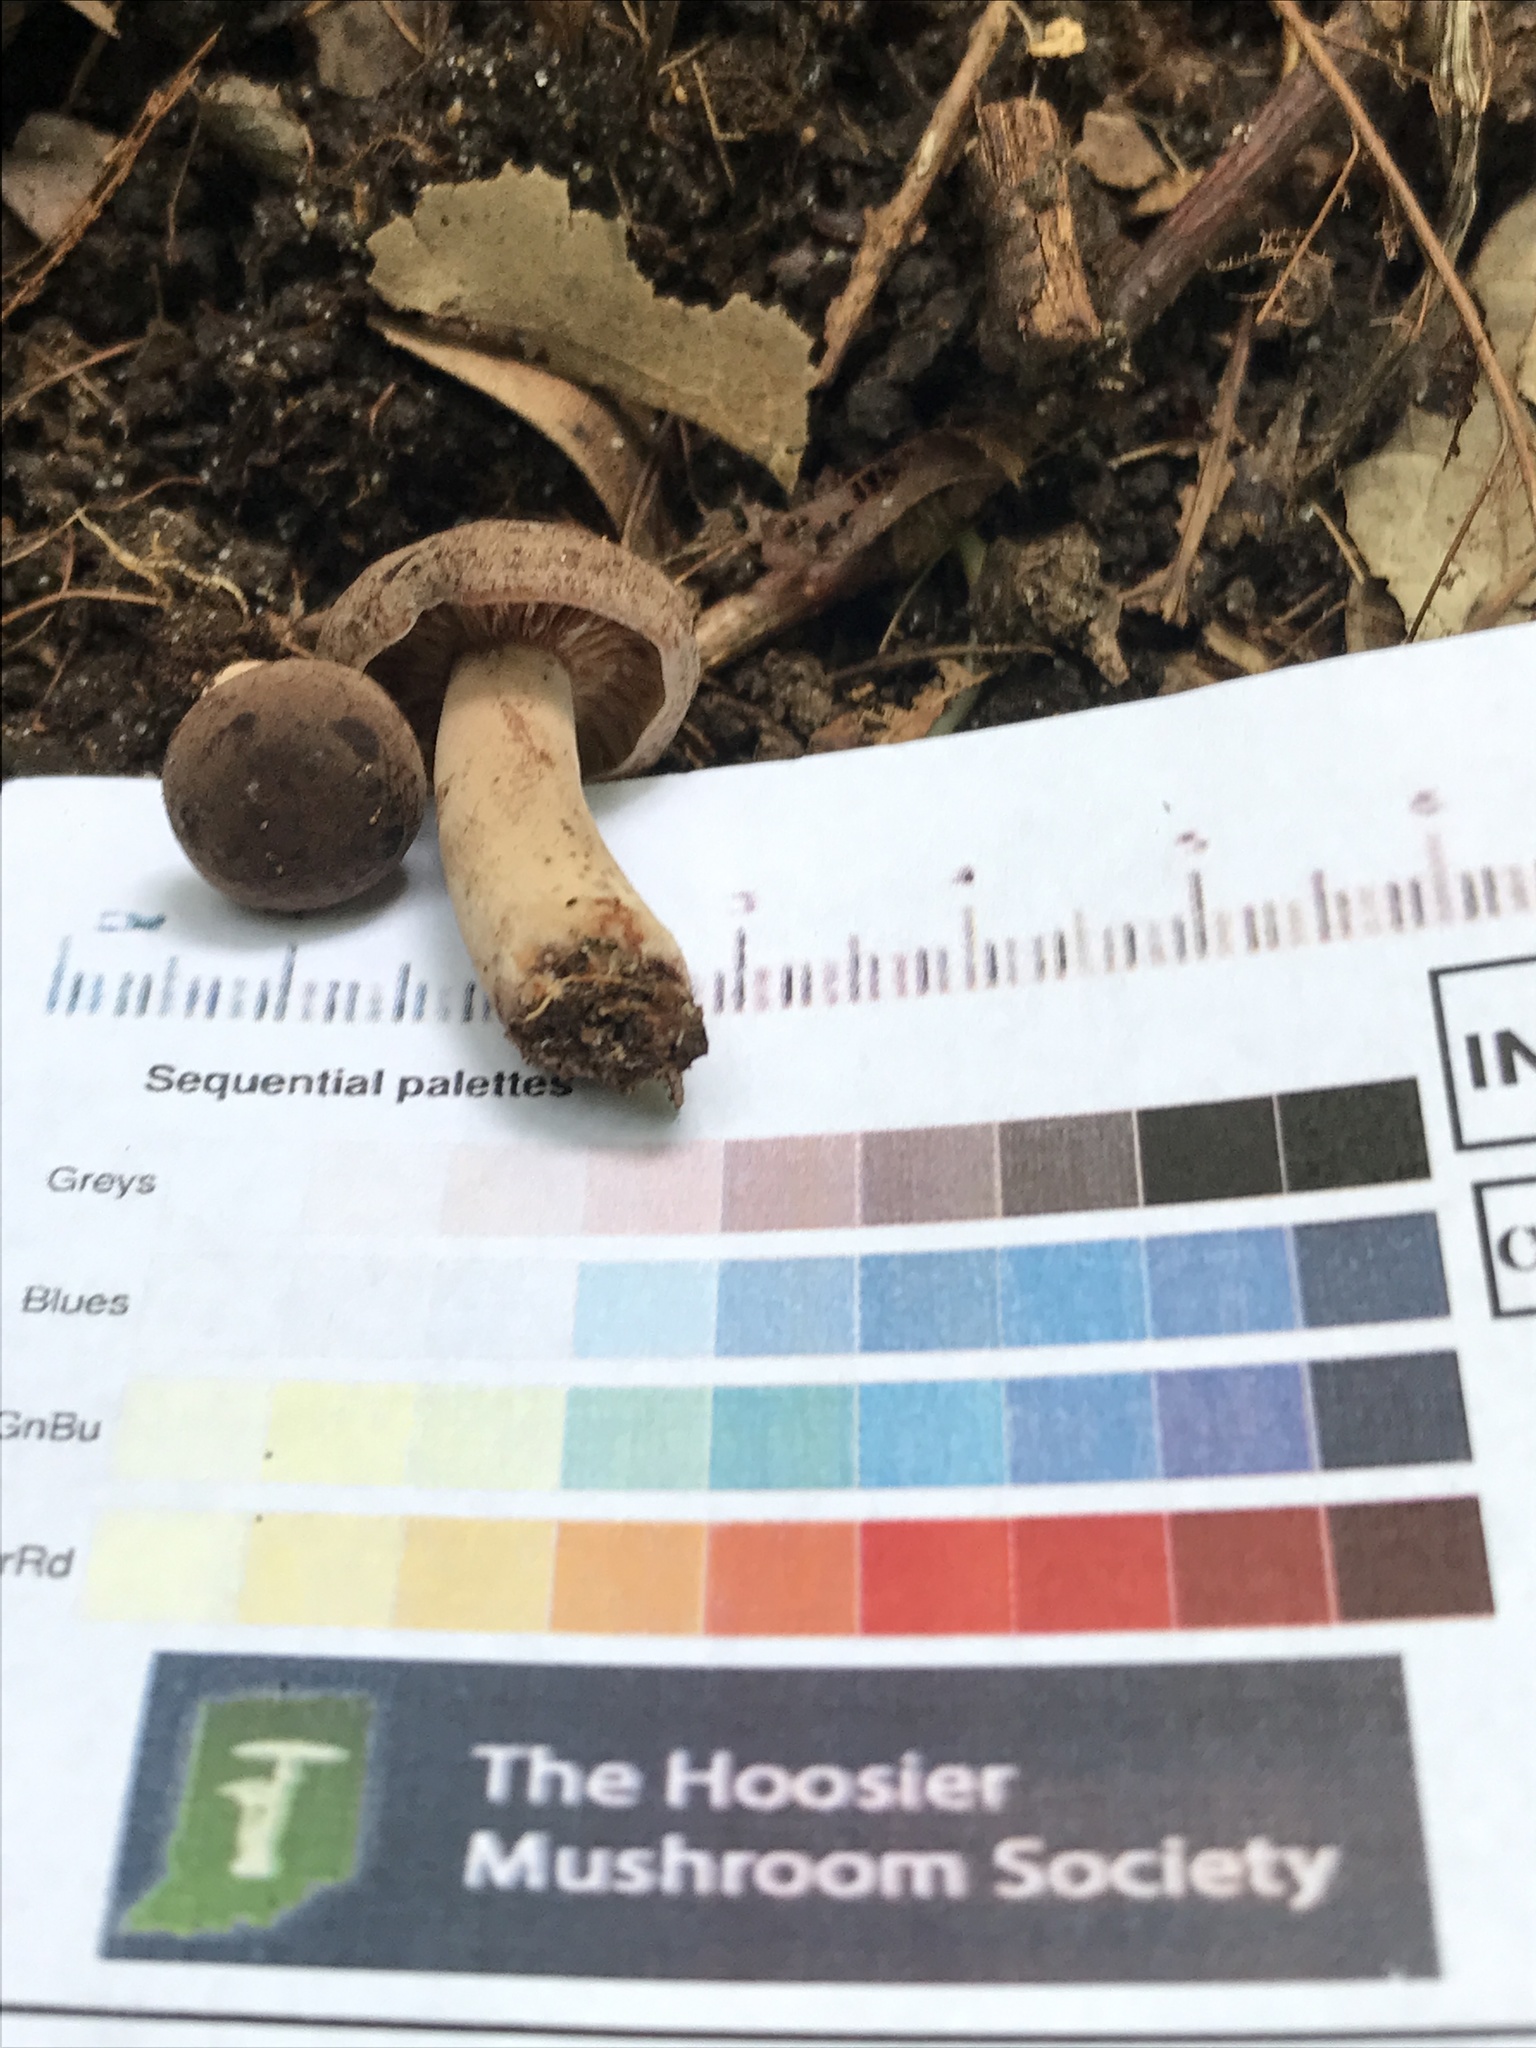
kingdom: Fungi
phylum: Basidiomycota
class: Agaricomycetes
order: Russulales
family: Russulaceae
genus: Lactarius
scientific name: Lactarius mutabilis
